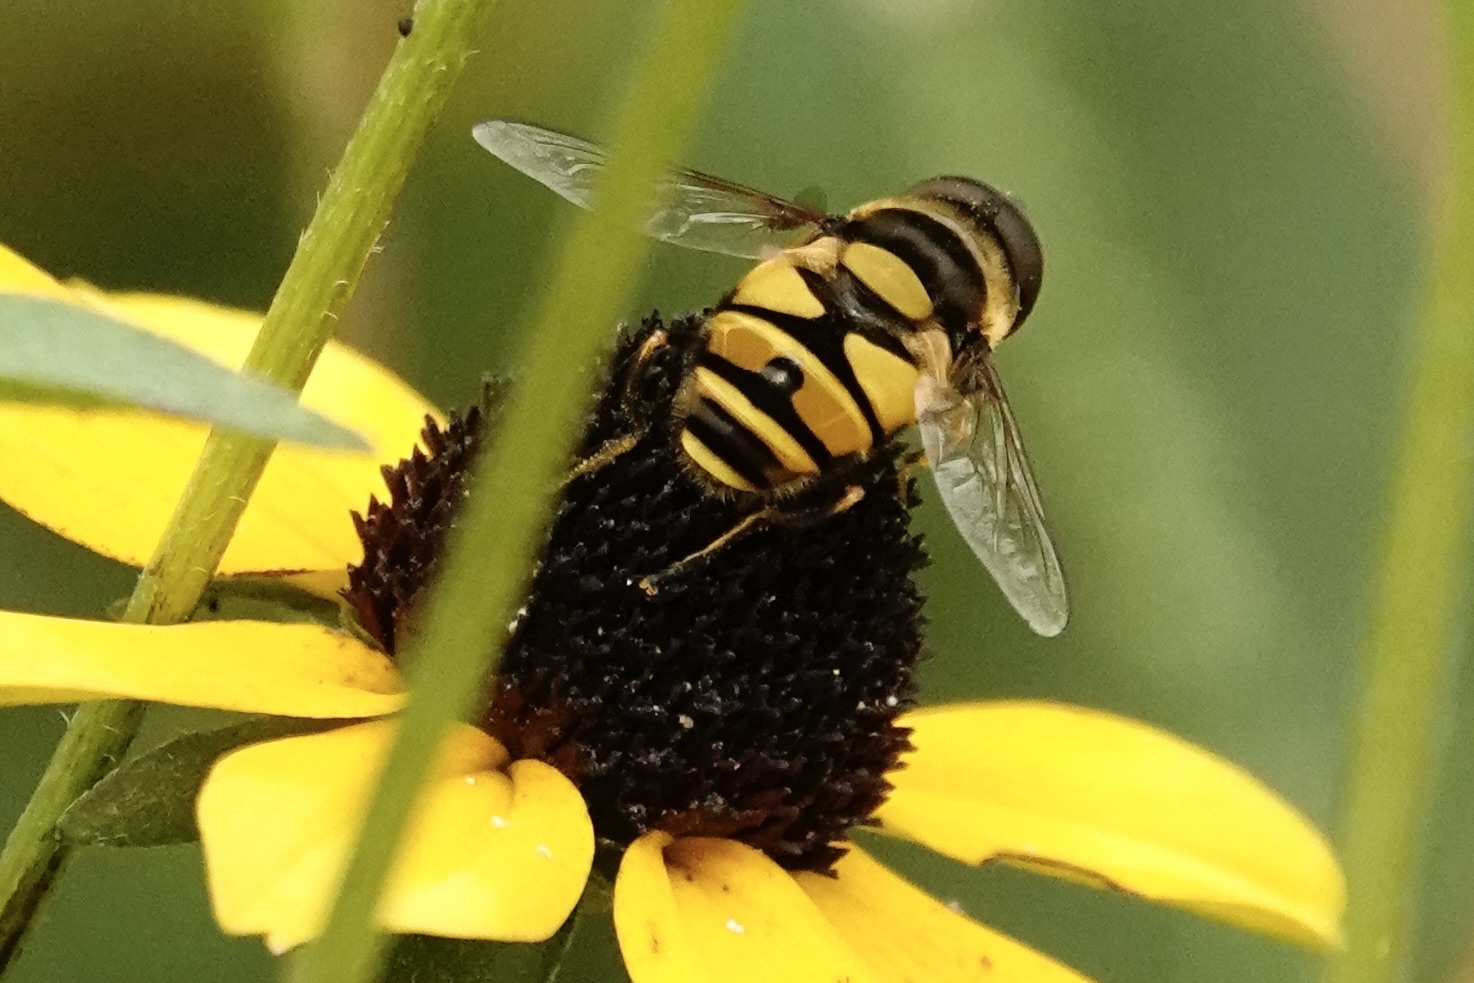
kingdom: Animalia
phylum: Arthropoda
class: Insecta
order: Diptera
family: Syrphidae
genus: Eristalis
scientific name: Eristalis transversa
